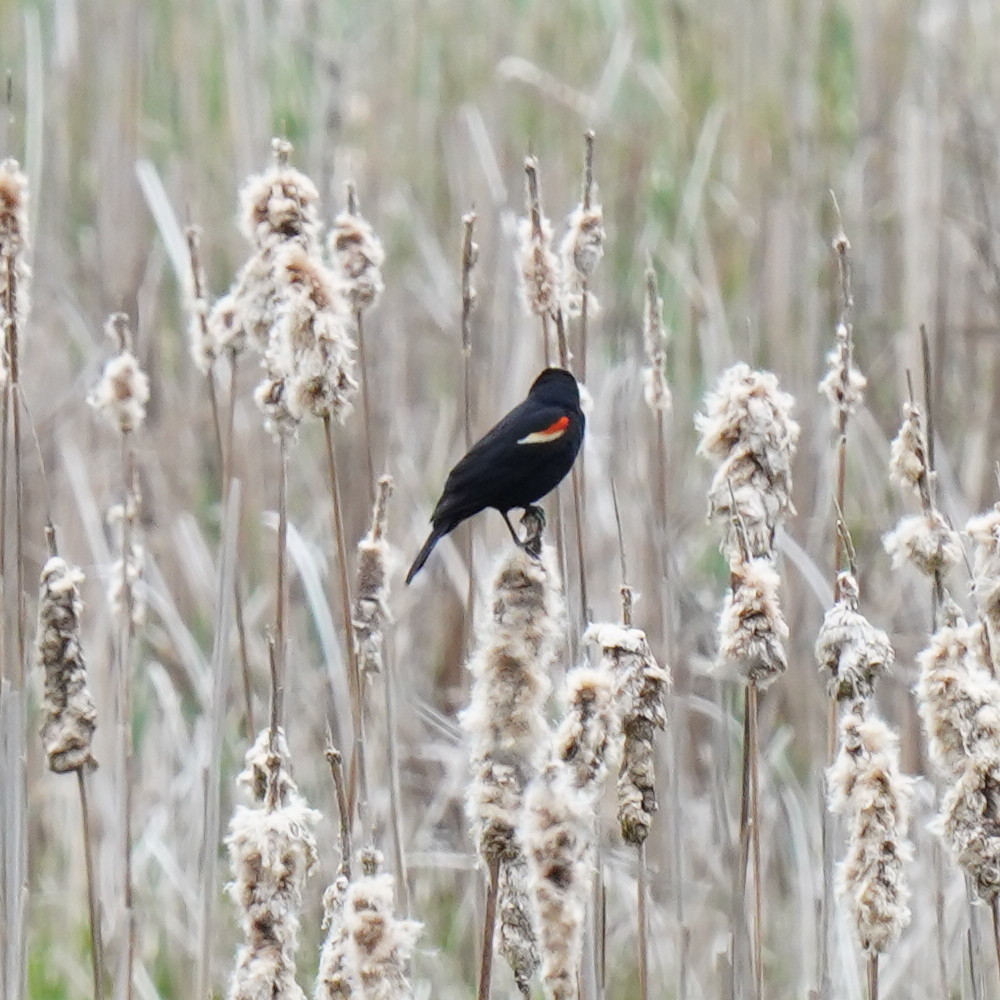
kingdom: Animalia
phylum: Chordata
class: Aves
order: Passeriformes
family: Icteridae
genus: Agelaius
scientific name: Agelaius phoeniceus
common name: Red-winged blackbird
